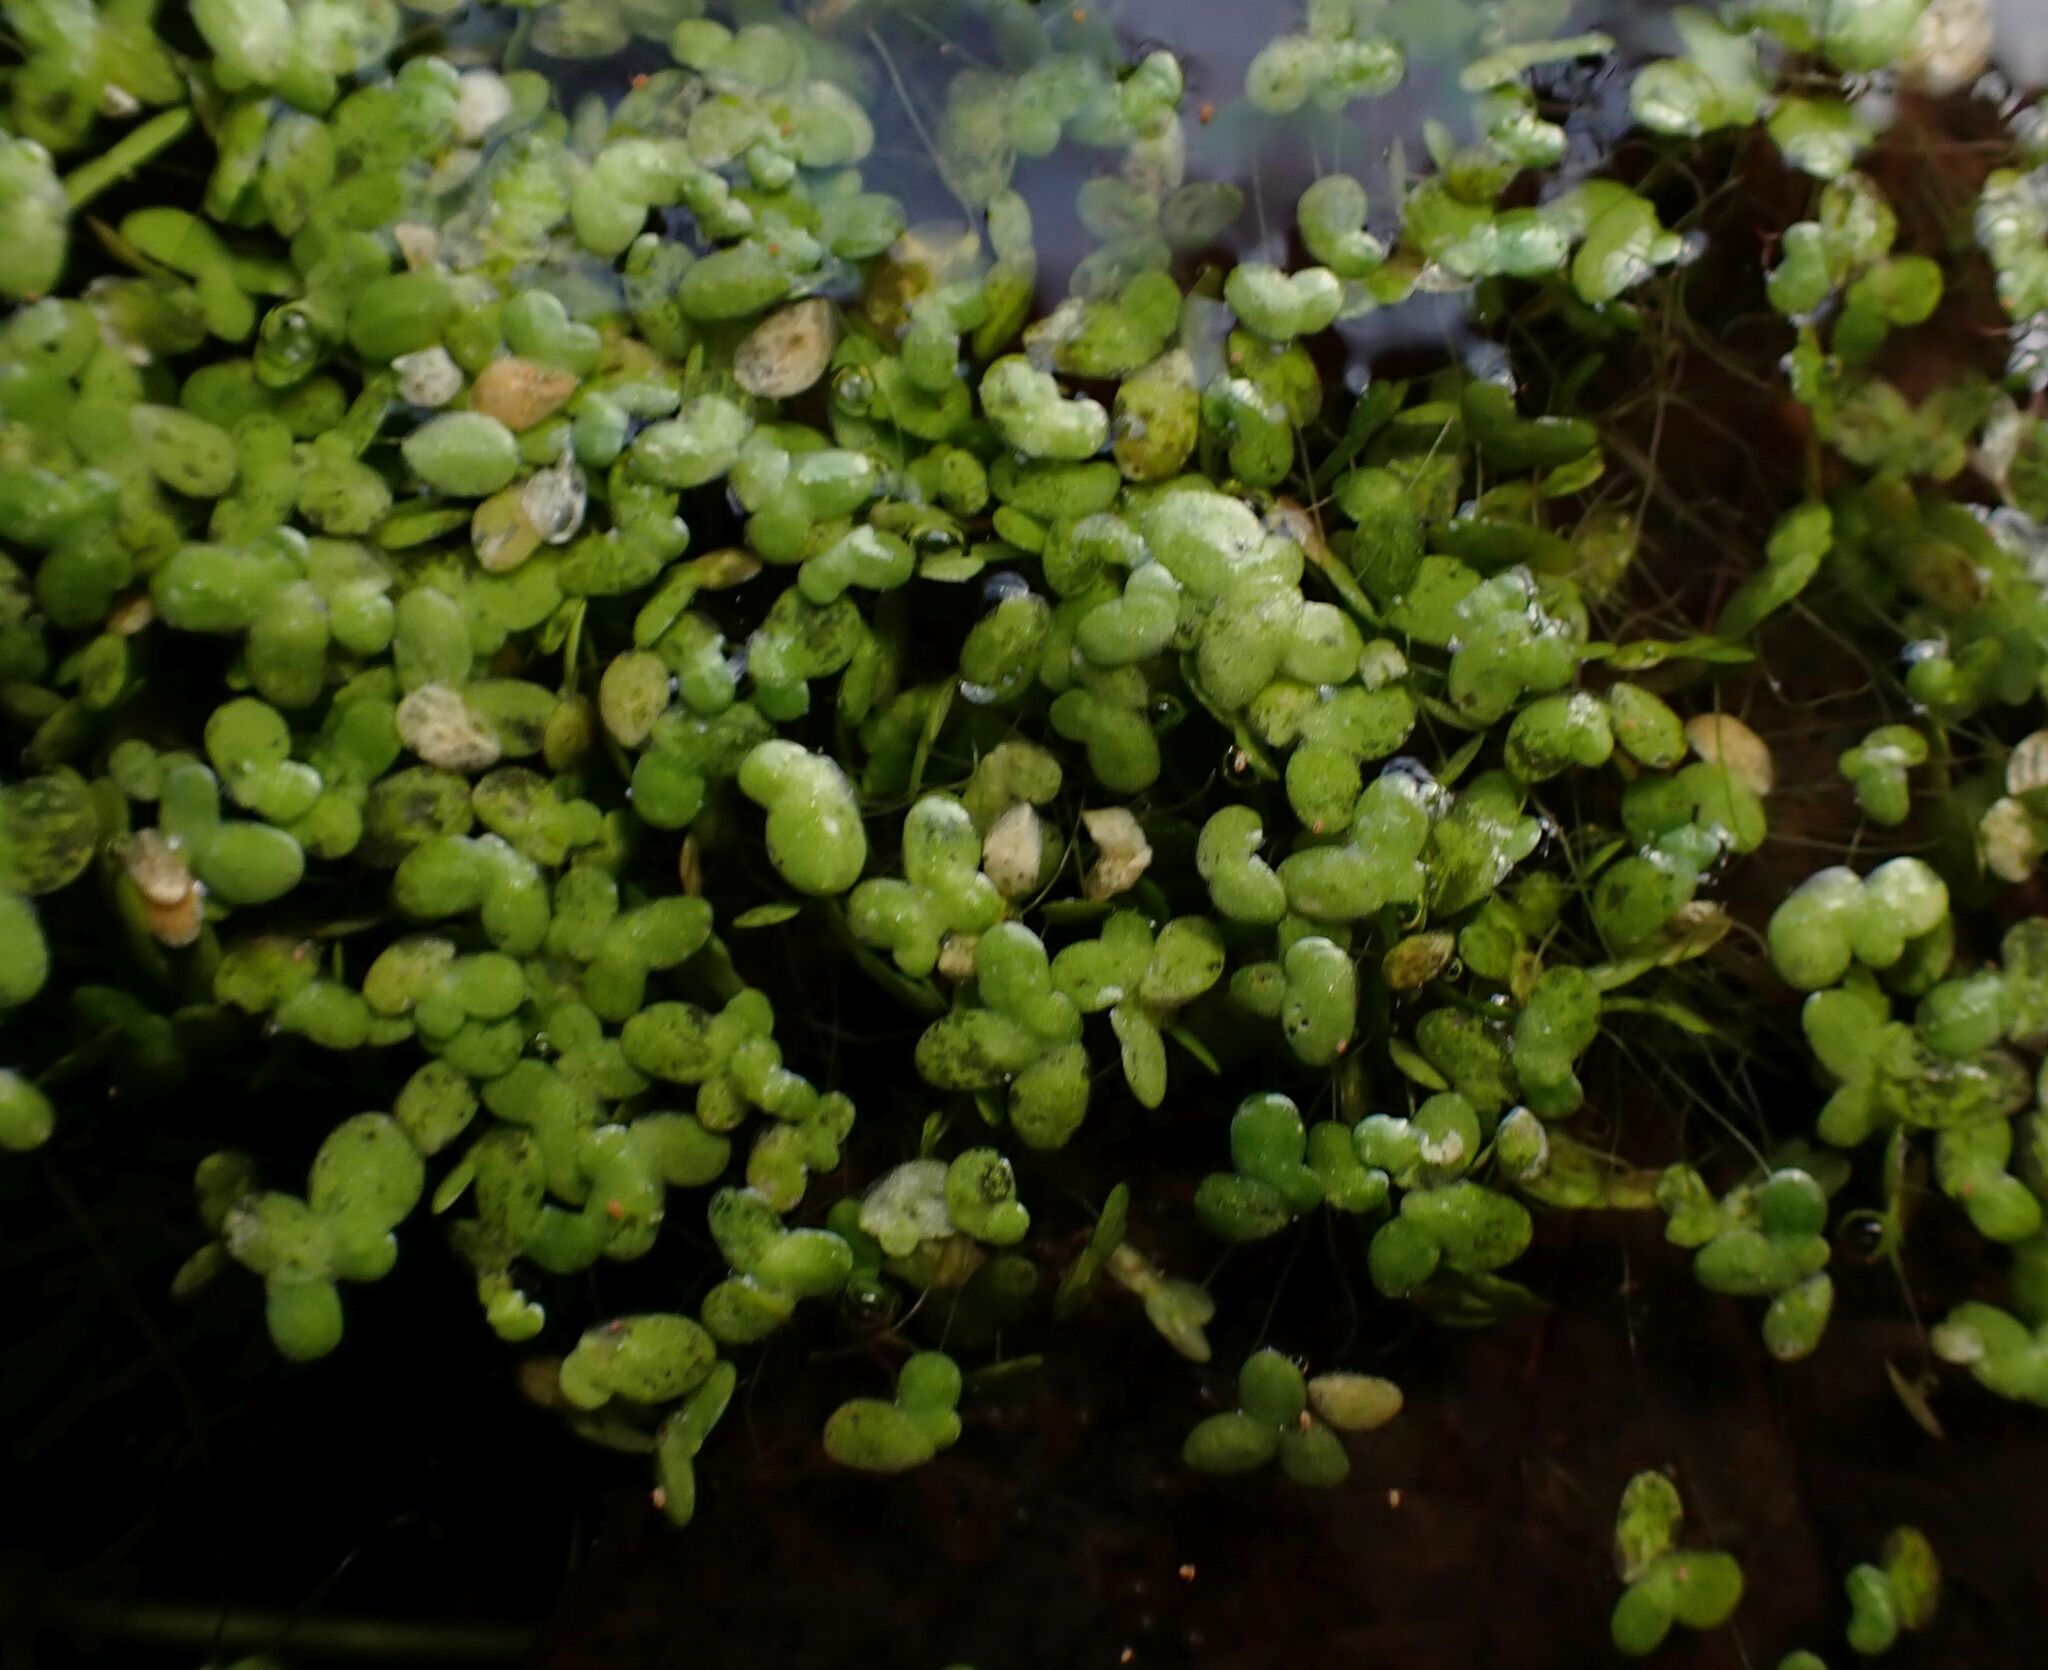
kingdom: Plantae
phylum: Tracheophyta
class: Liliopsida
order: Alismatales
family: Araceae
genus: Lemna
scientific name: Lemna minor
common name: Common duckweed
